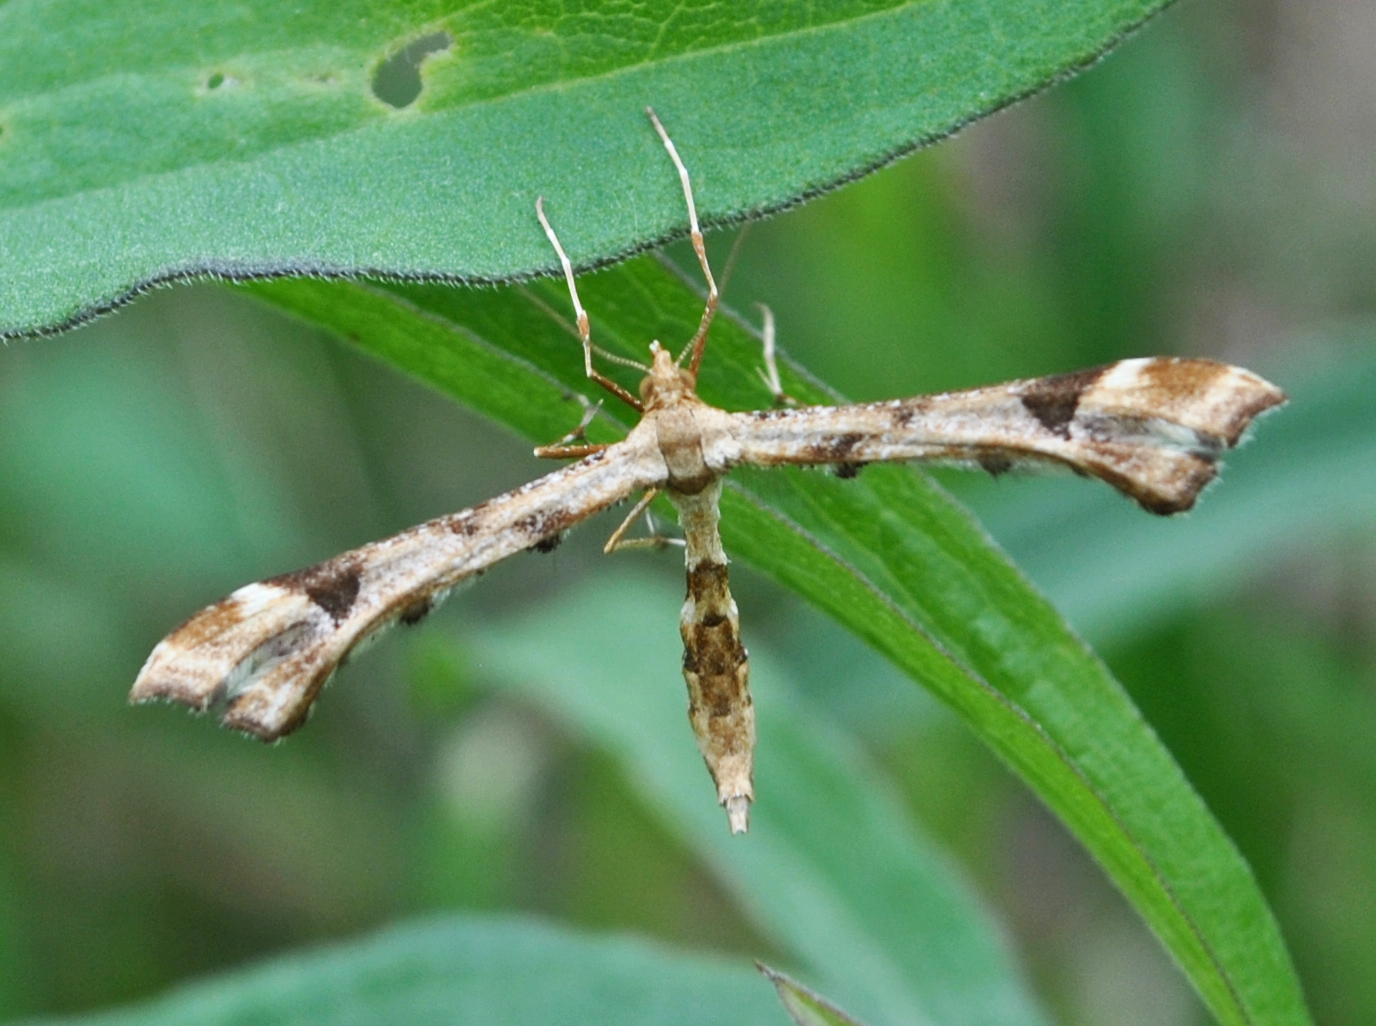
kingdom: Animalia
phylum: Arthropoda
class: Insecta
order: Lepidoptera
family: Pterophoridae
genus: Platyptilia
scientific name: Platyptilia carduidactylus
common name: Artichoke plume moth
